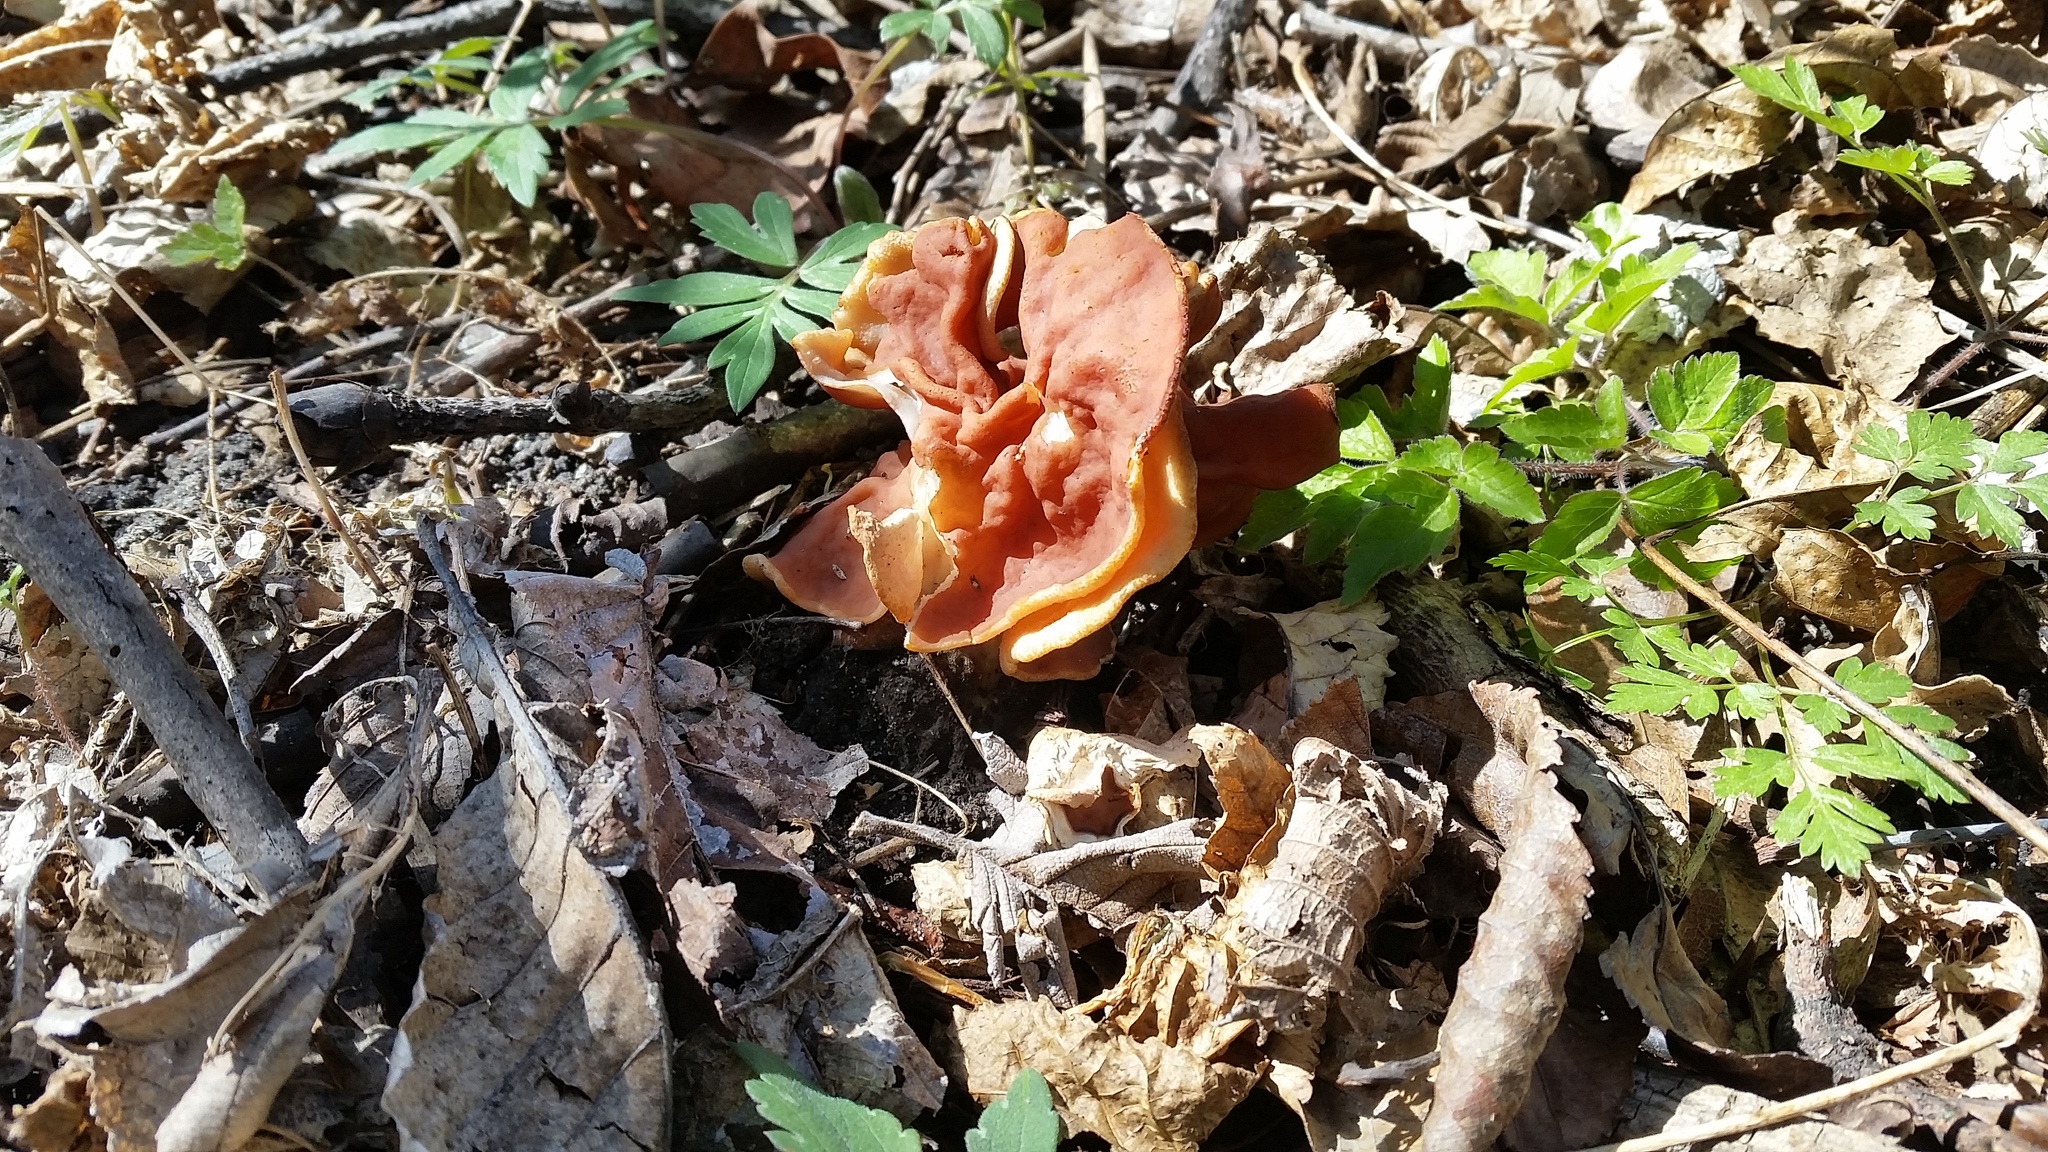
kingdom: Fungi
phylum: Ascomycota
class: Pezizomycetes
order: Pezizales
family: Discinaceae
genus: Discina
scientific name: Discina brunnea
